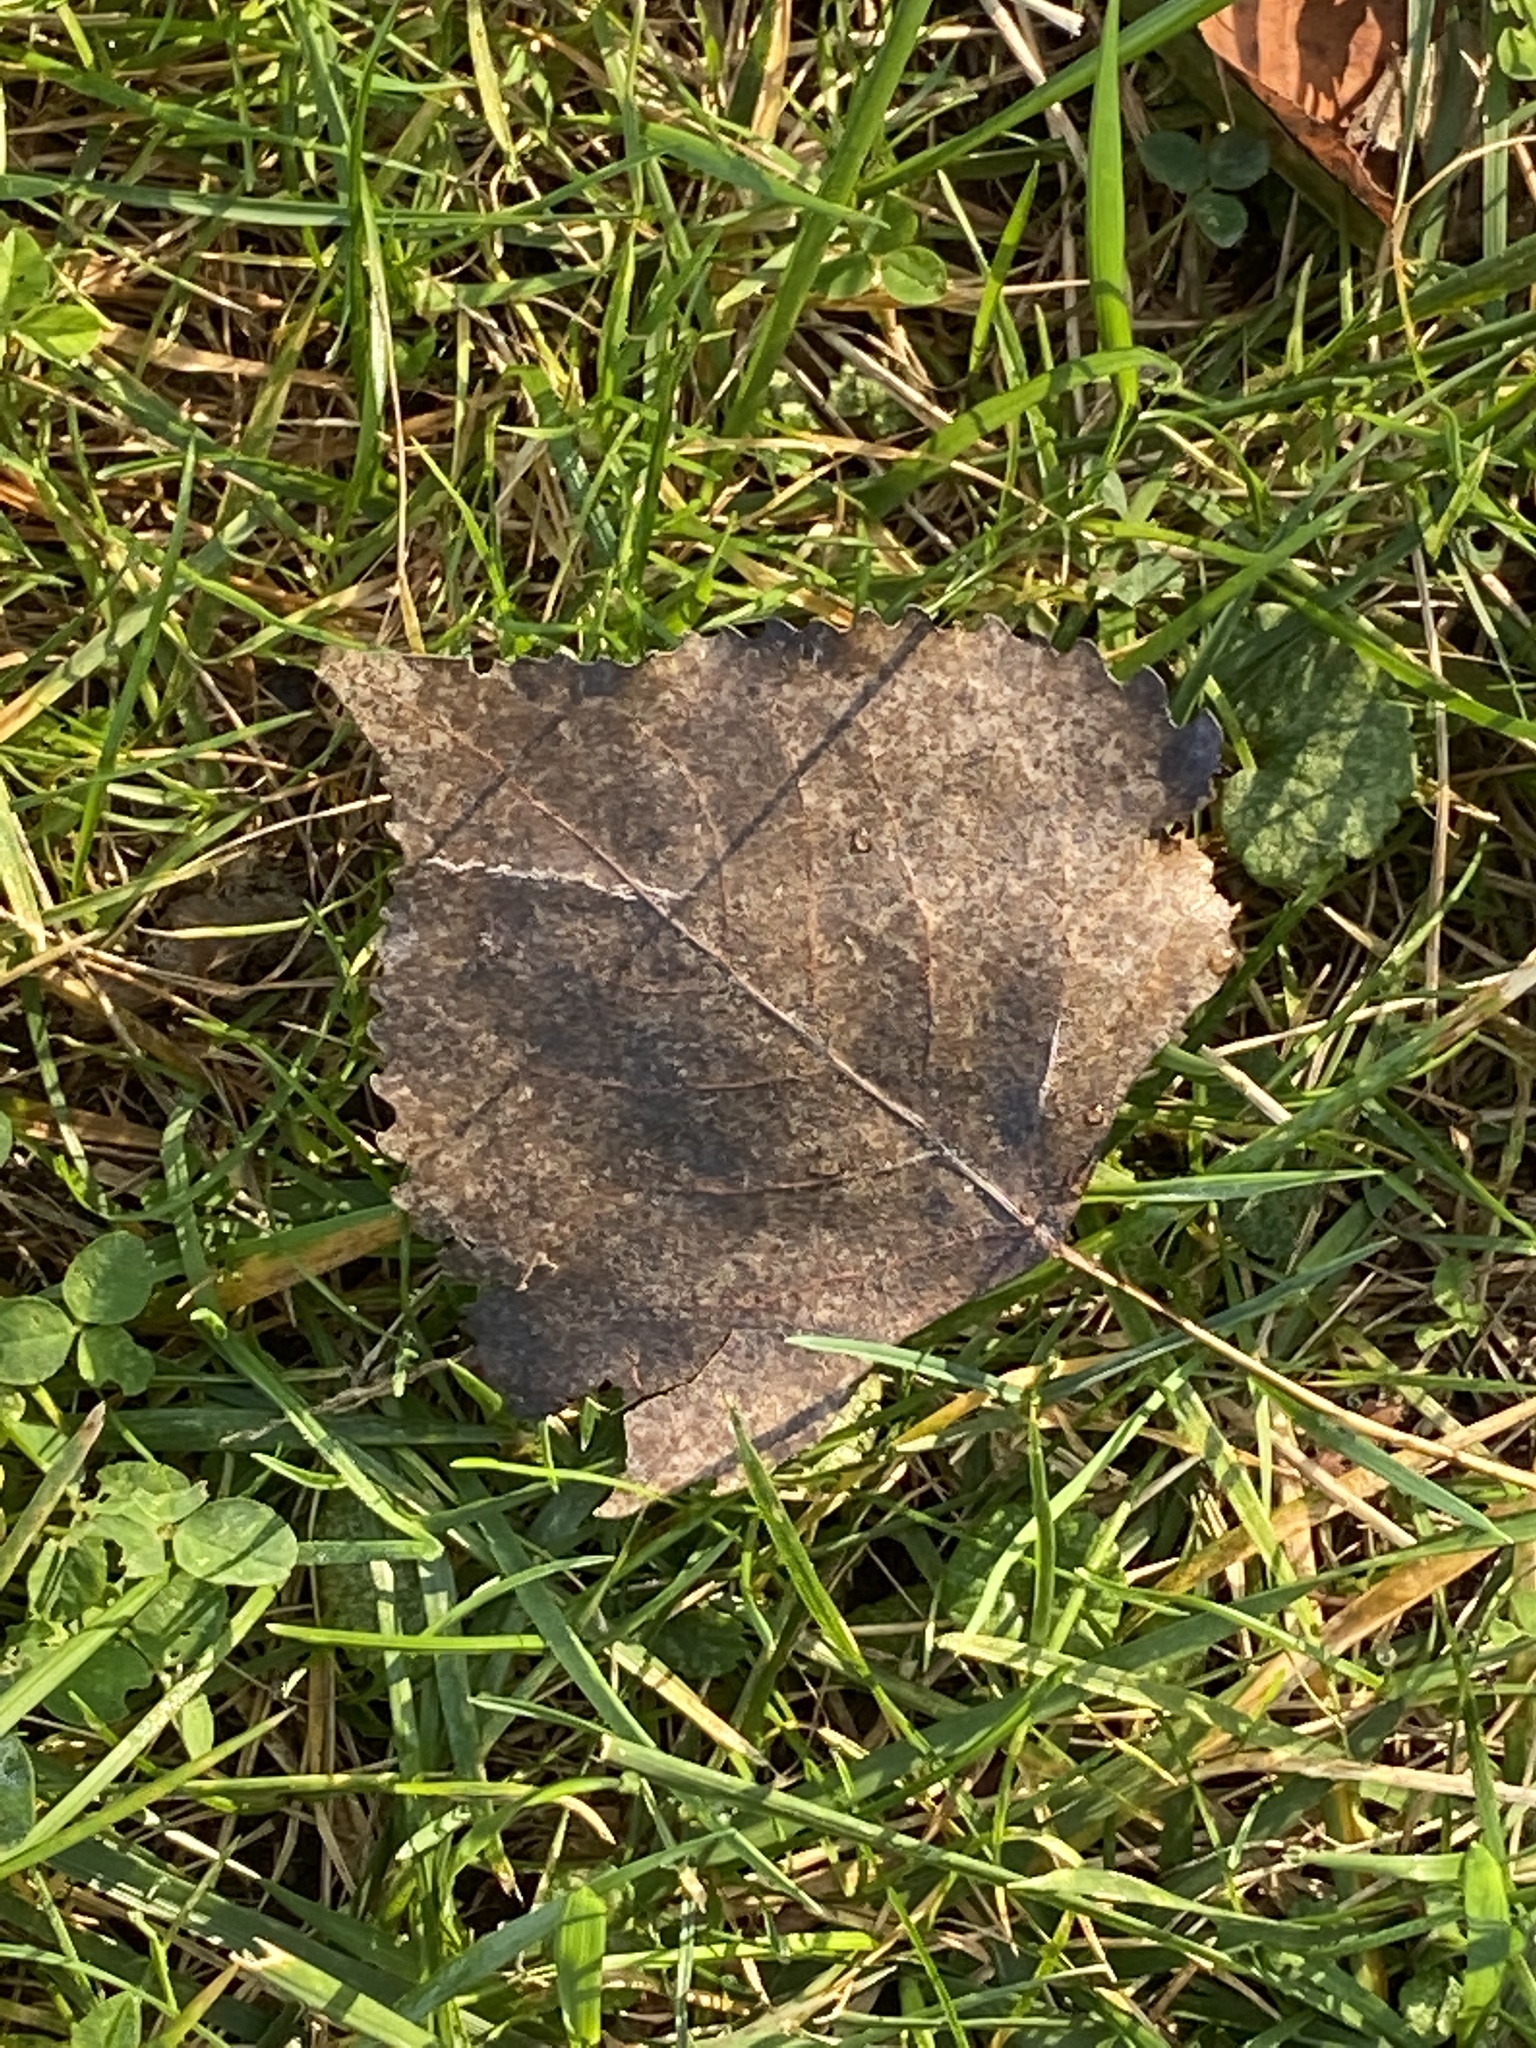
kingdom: Plantae
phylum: Tracheophyta
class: Magnoliopsida
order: Malpighiales
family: Salicaceae
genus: Populus
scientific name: Populus deltoides
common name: Eastern cottonwood
